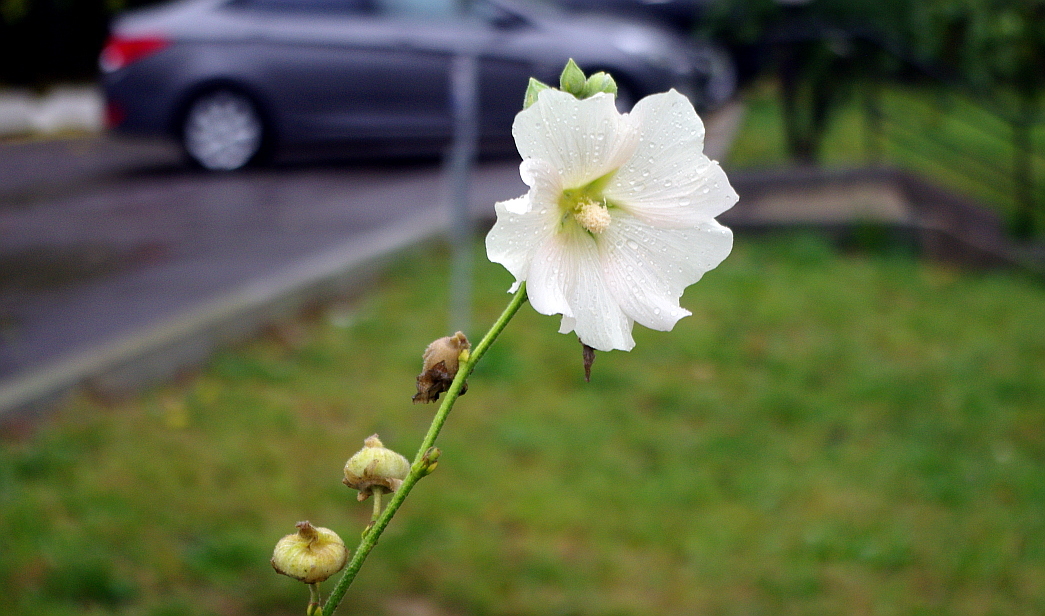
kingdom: Plantae
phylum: Tracheophyta
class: Magnoliopsida
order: Malvales
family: Malvaceae
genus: Alcea
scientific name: Alcea rosea
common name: Hollyhock
